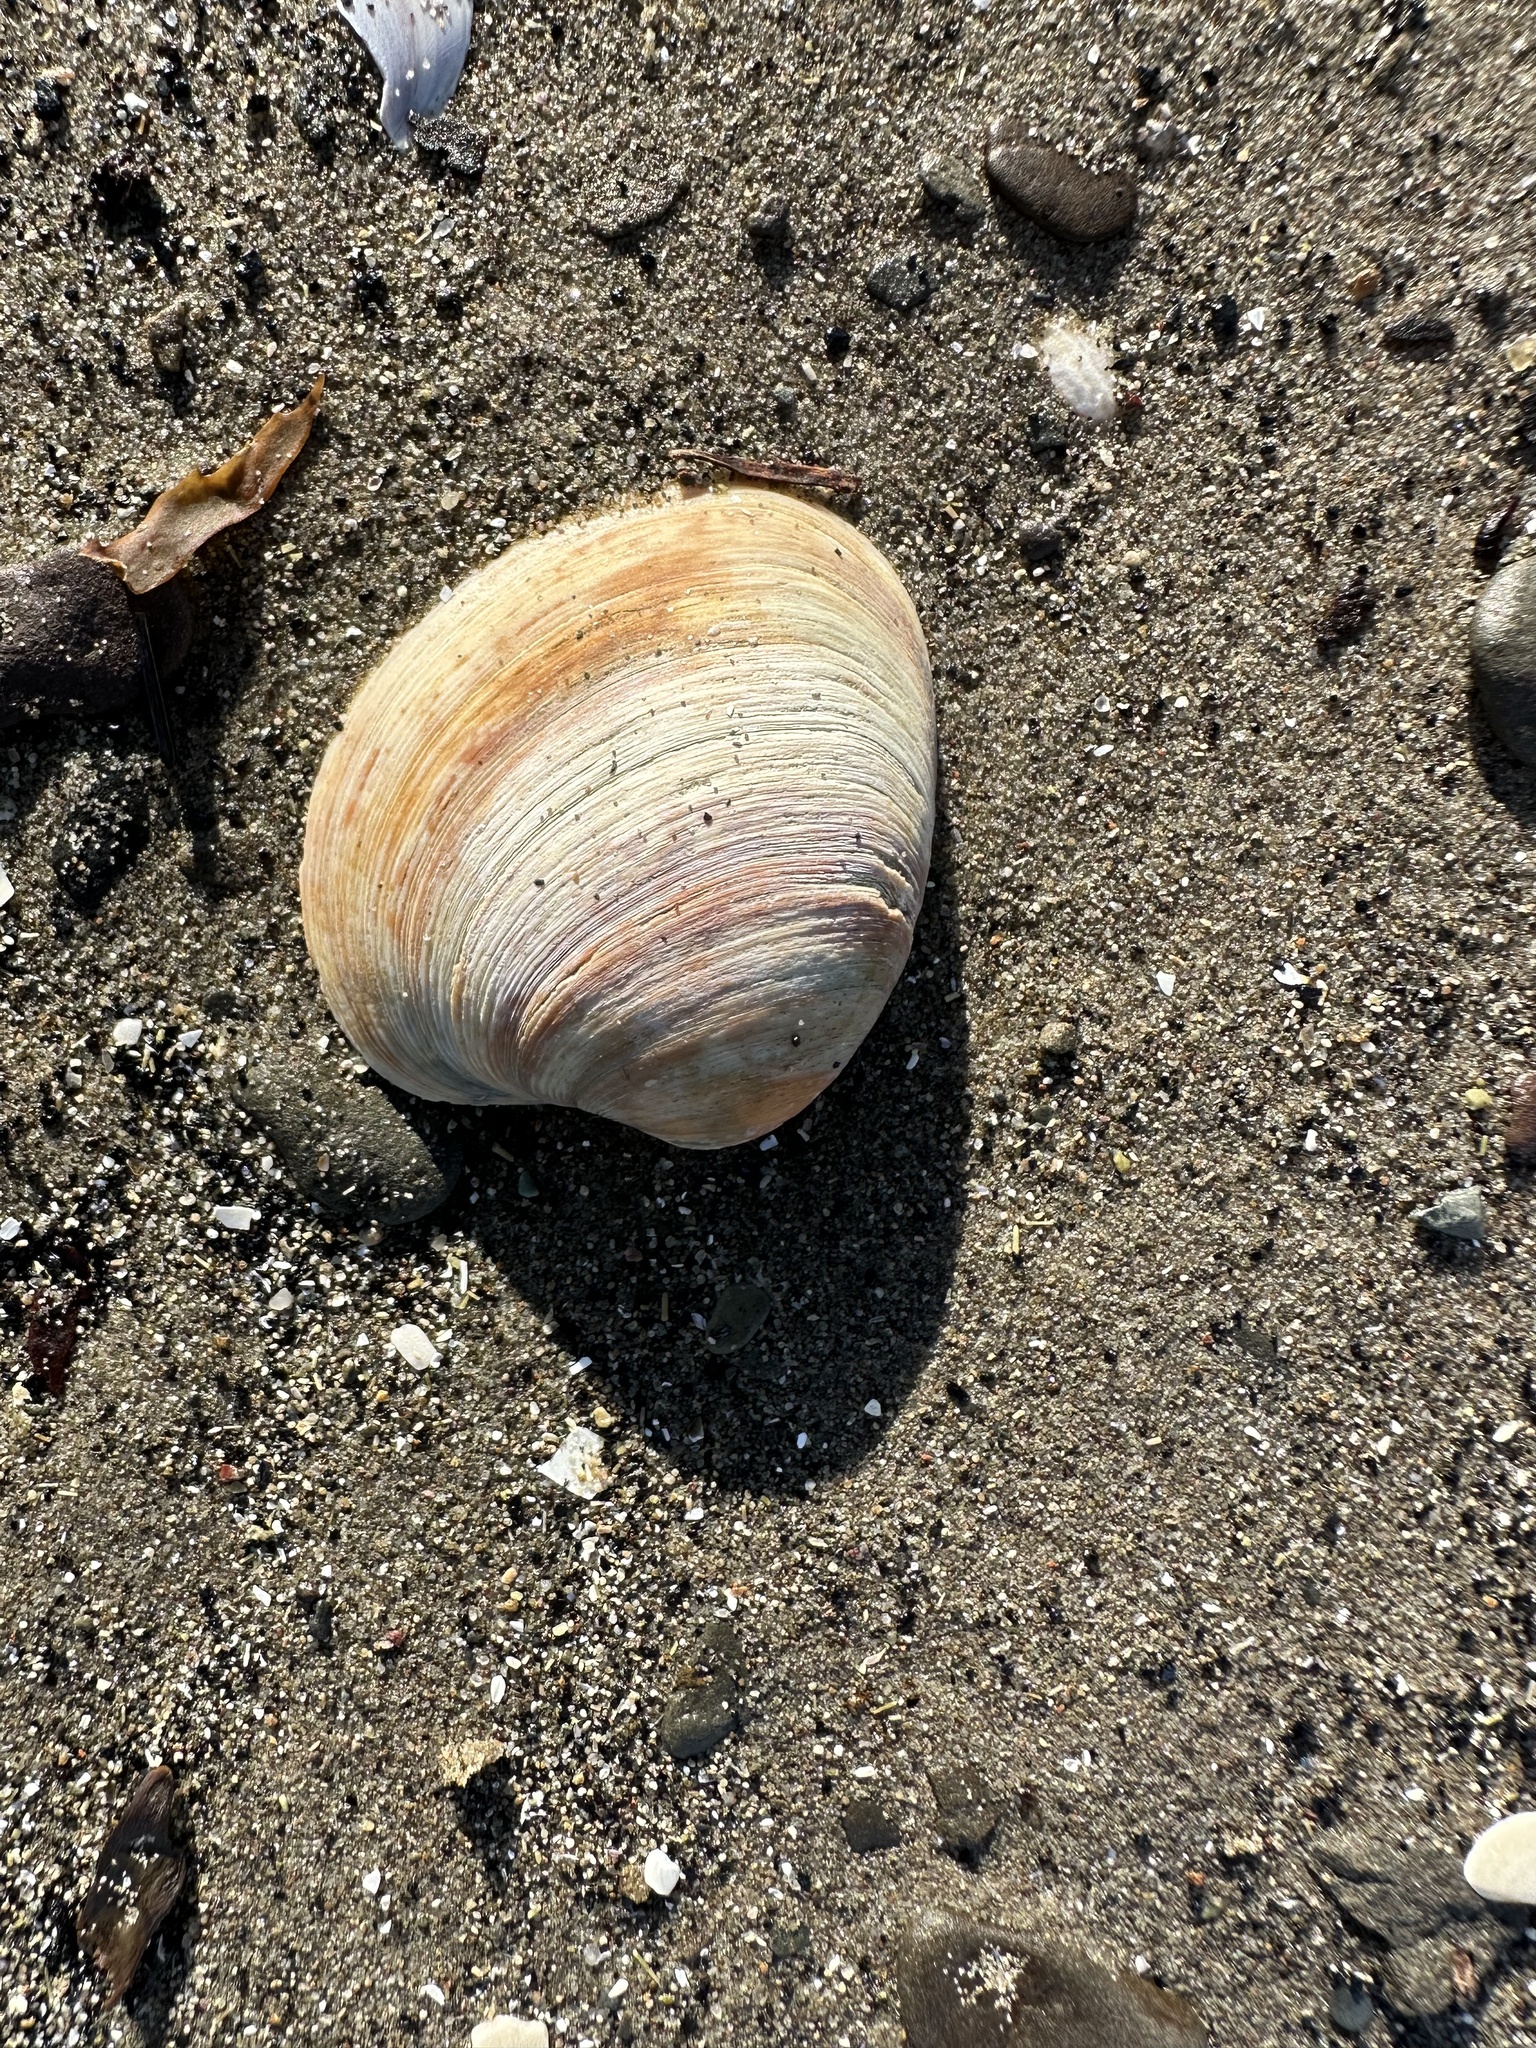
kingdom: Animalia
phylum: Mollusca
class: Bivalvia
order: Venerida
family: Veneridae
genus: Agriopoma
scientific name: Agriopoma morrhuanum
